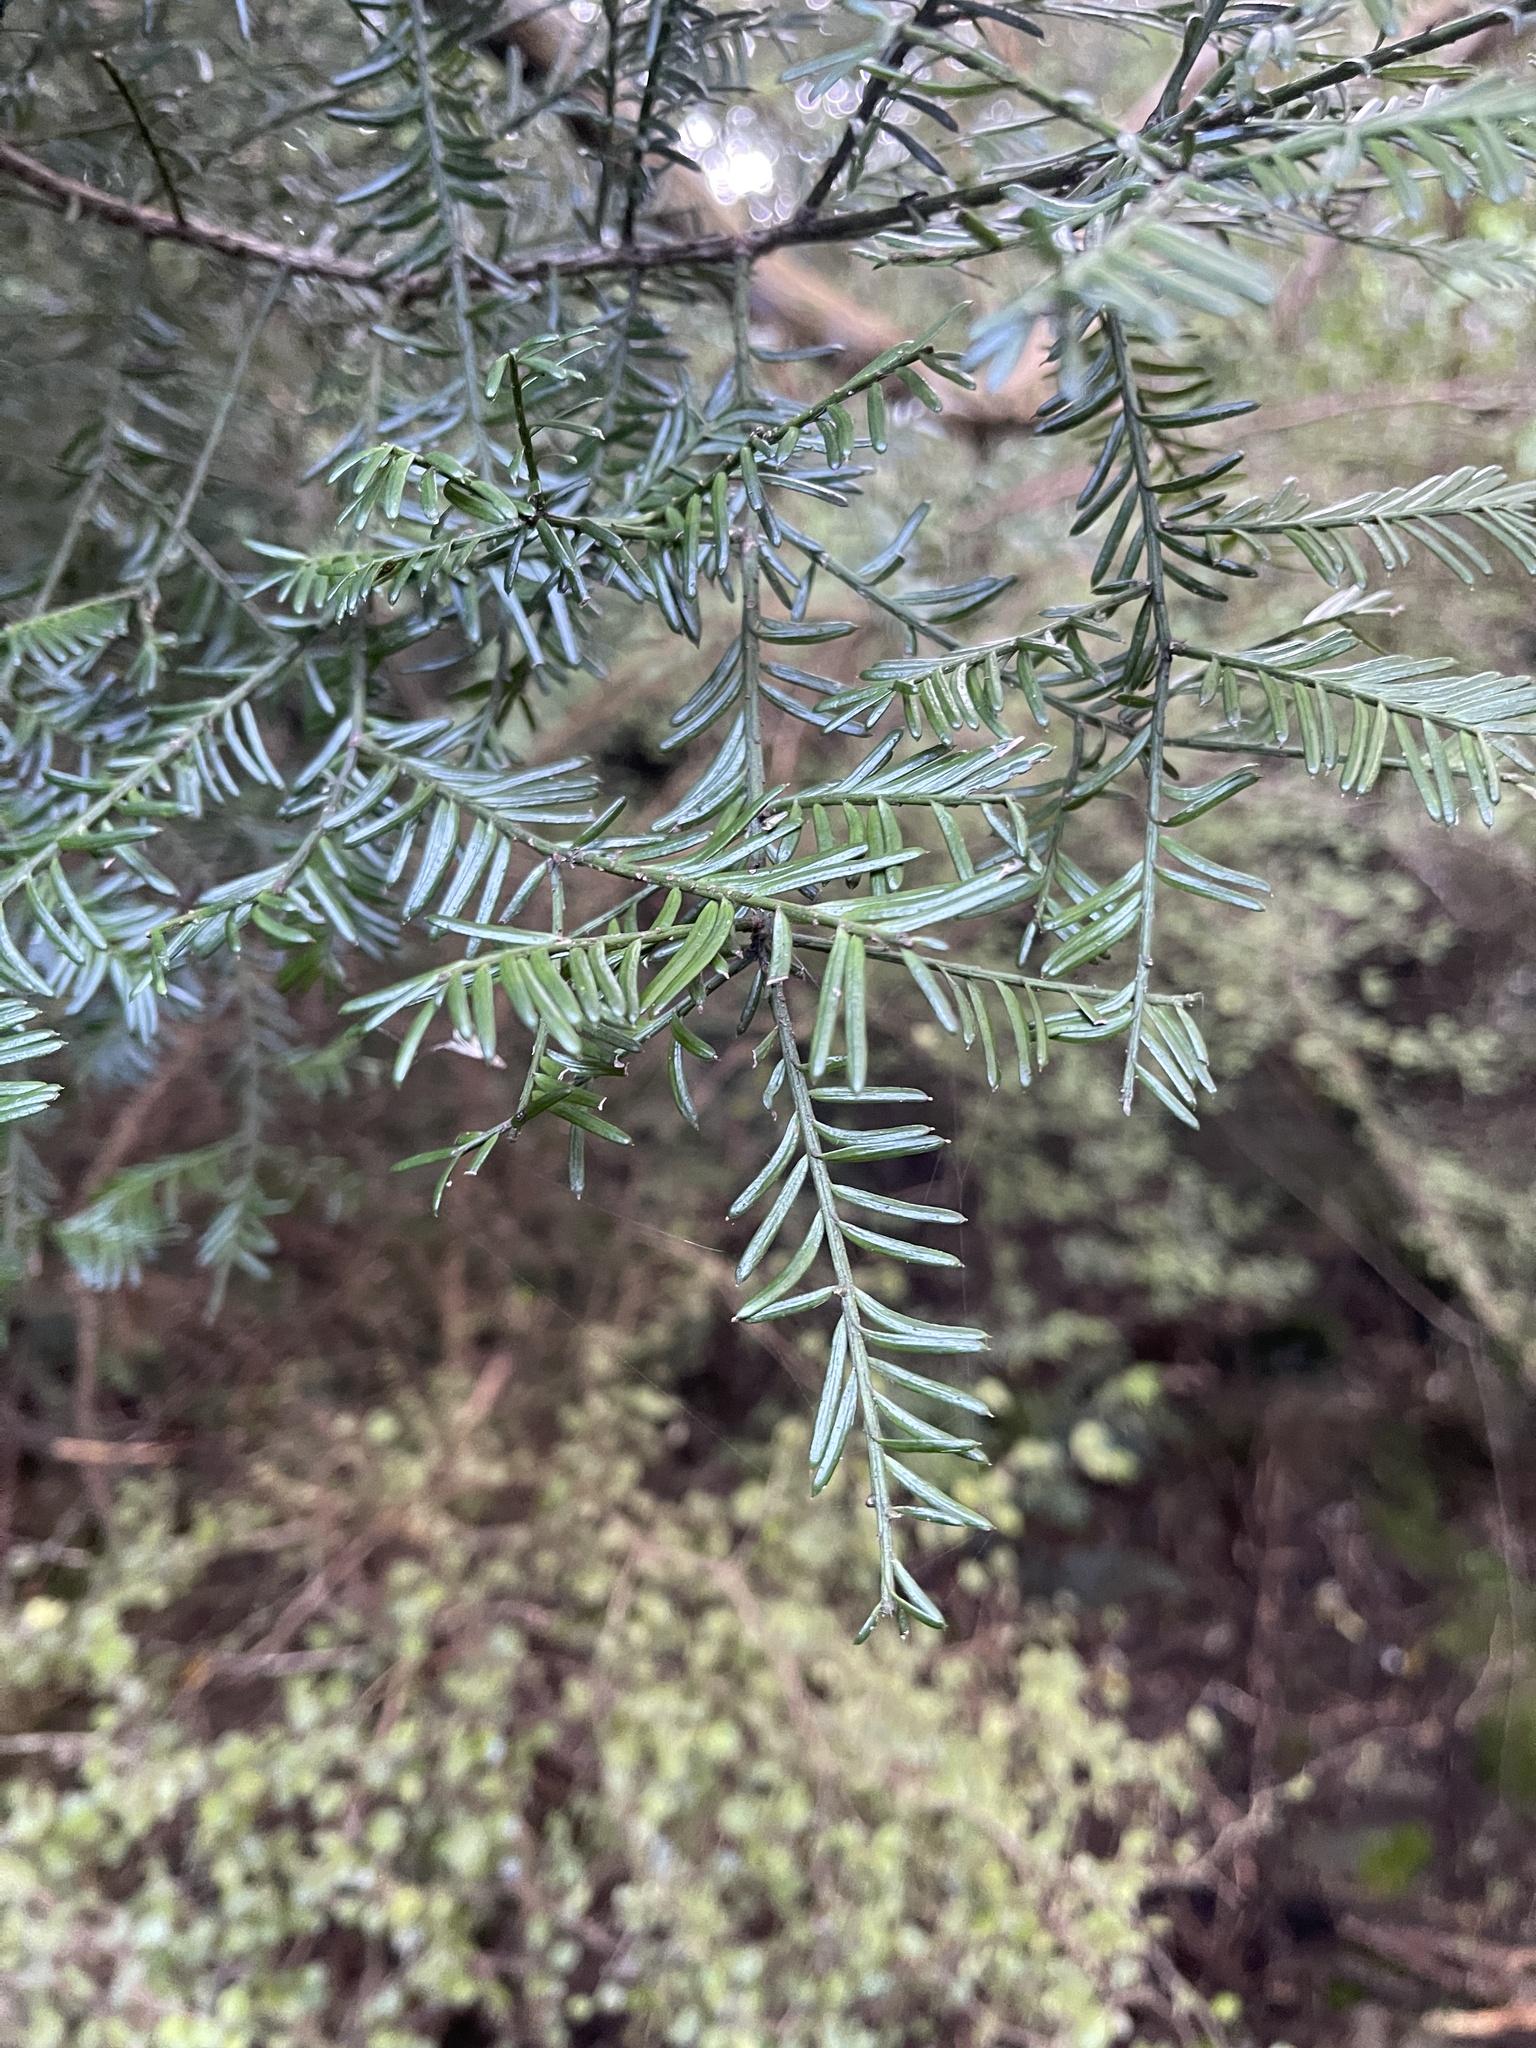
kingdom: Plantae
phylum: Tracheophyta
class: Pinopsida
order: Pinales
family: Podocarpaceae
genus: Prumnopitys
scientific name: Prumnopitys taxifolia
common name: Matai
